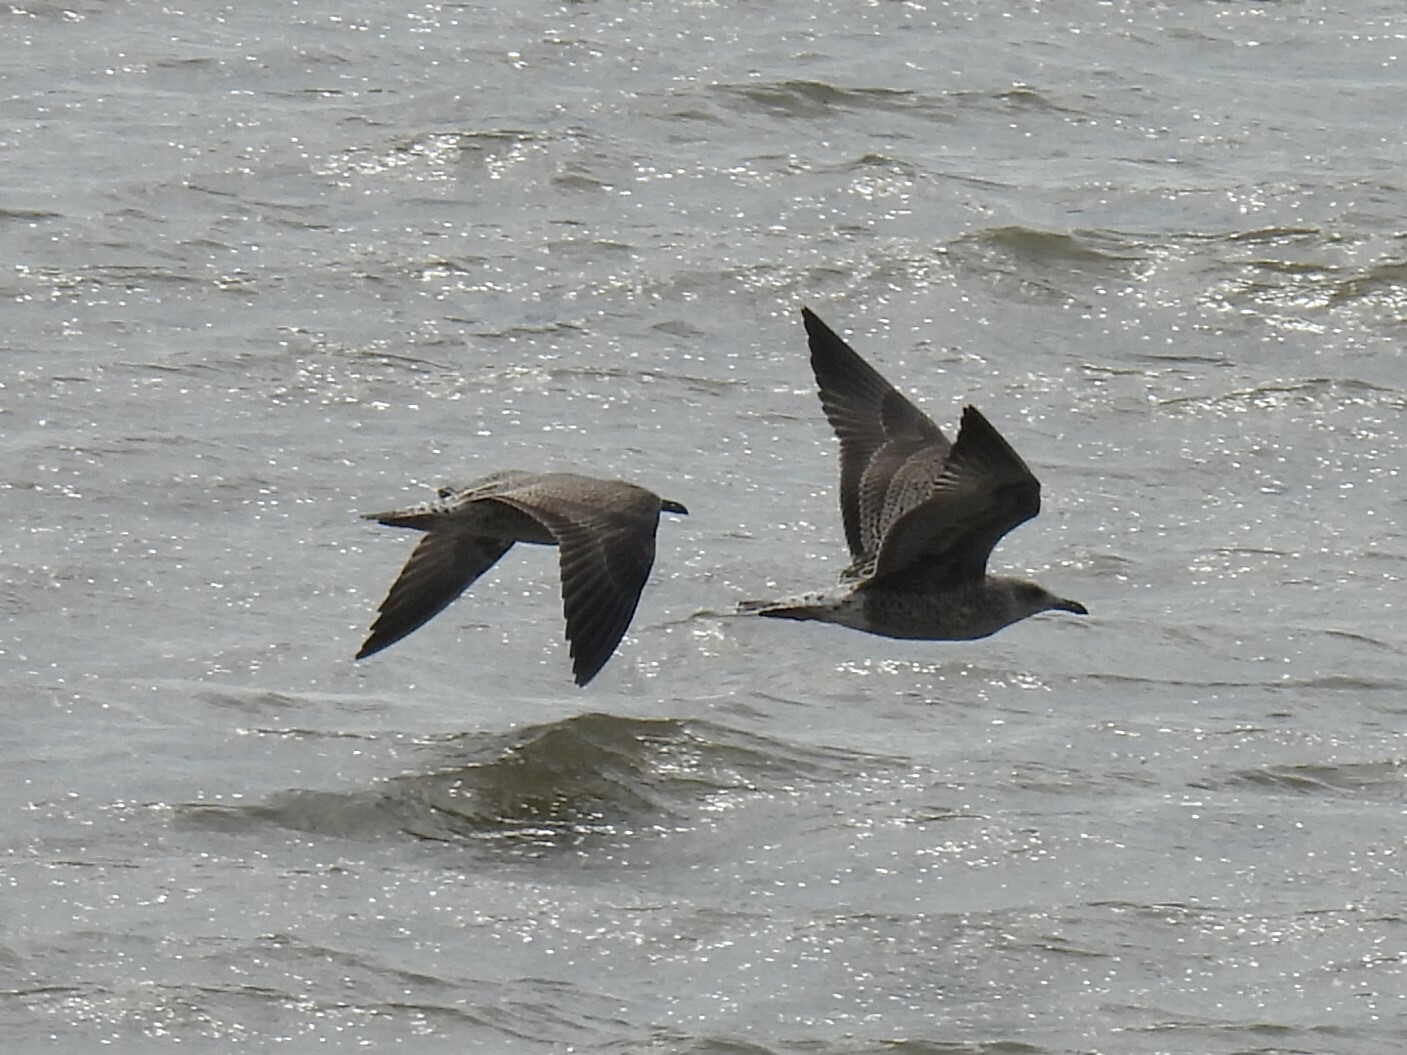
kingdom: Animalia
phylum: Chordata
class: Aves
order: Charadriiformes
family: Laridae
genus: Larus
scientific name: Larus fuscus
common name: Lesser black-backed gull
